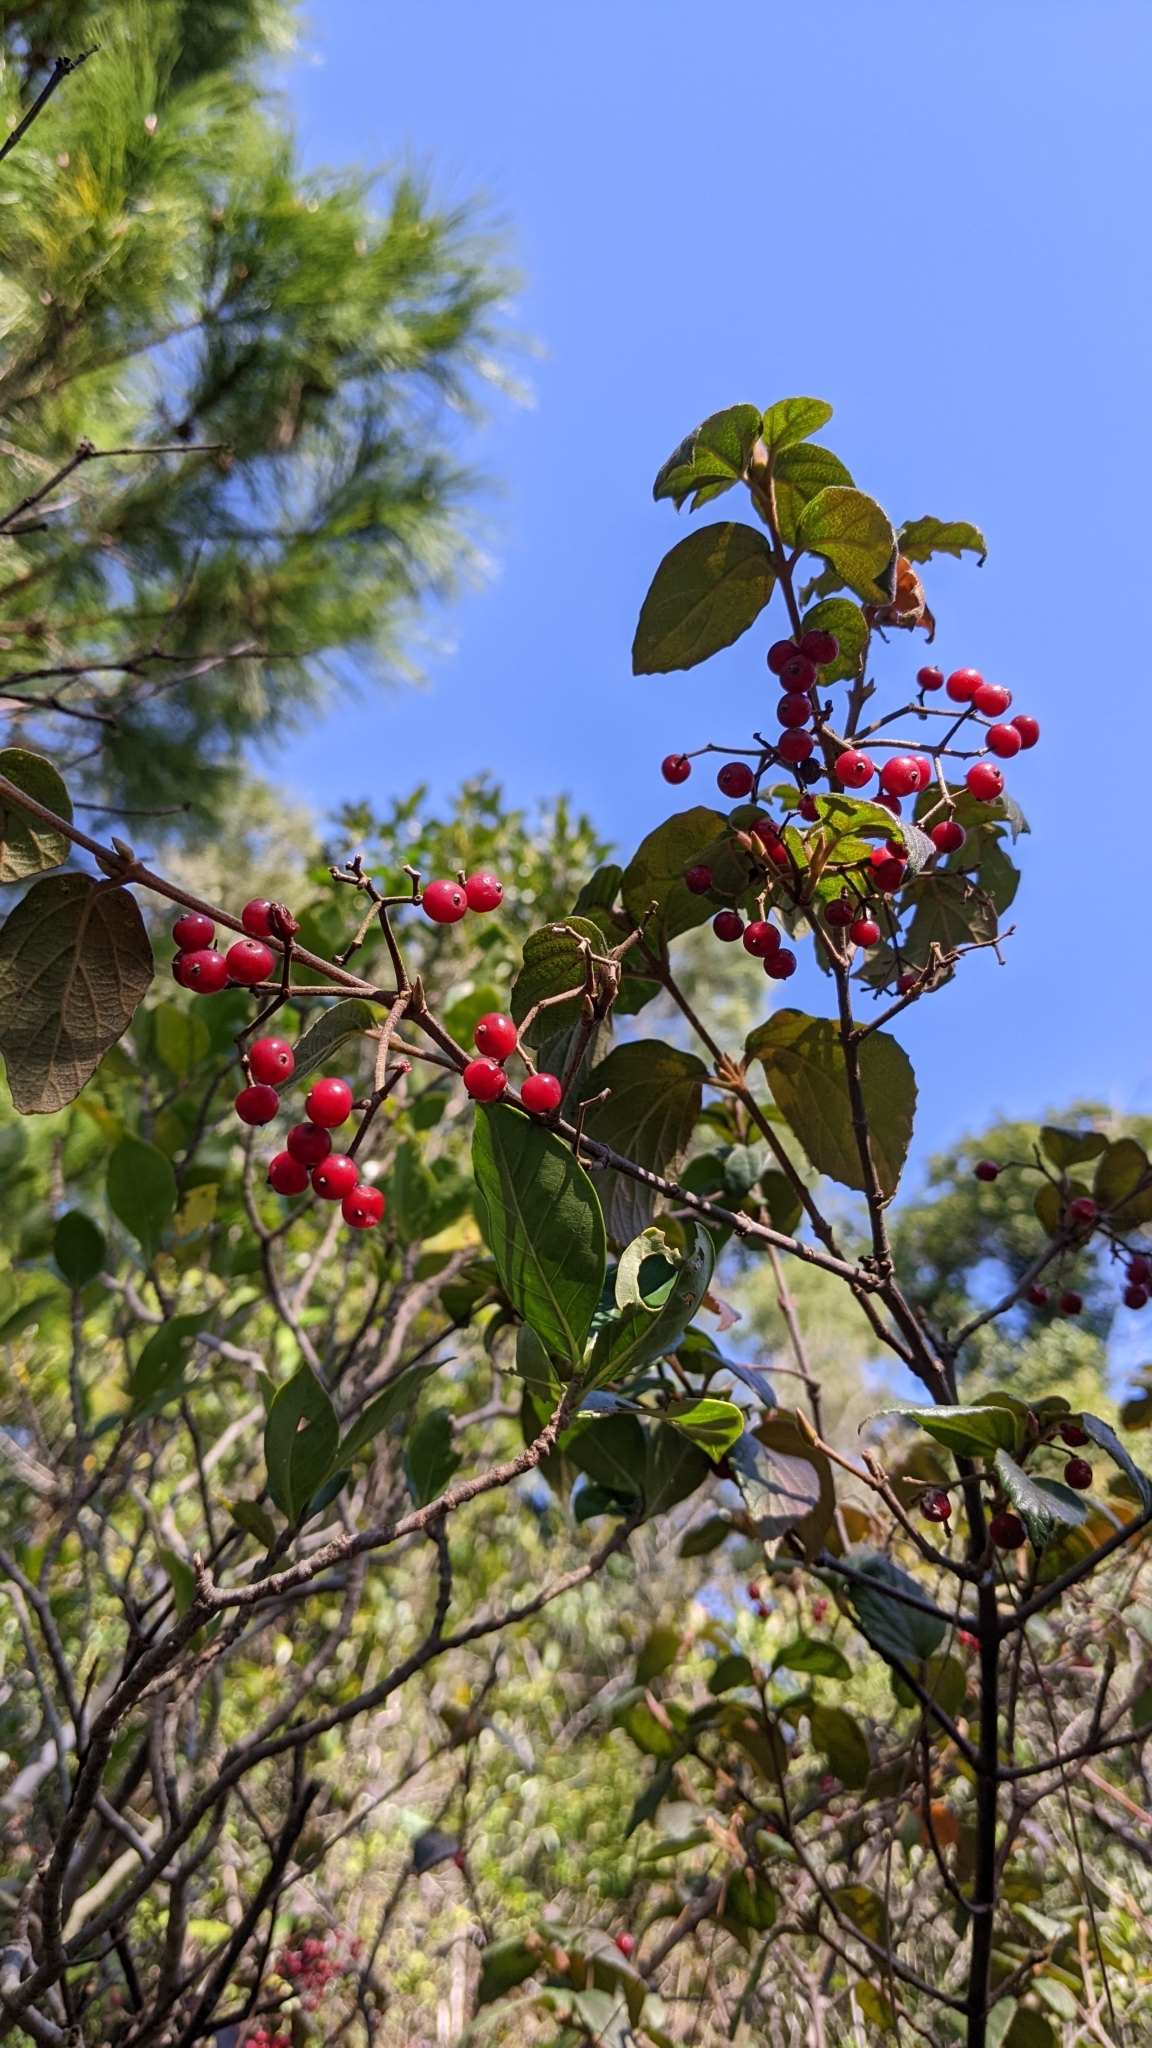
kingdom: Plantae
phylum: Tracheophyta
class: Magnoliopsida
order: Dipsacales
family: Viburnaceae
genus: Viburnum
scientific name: Viburnum luzonicum
